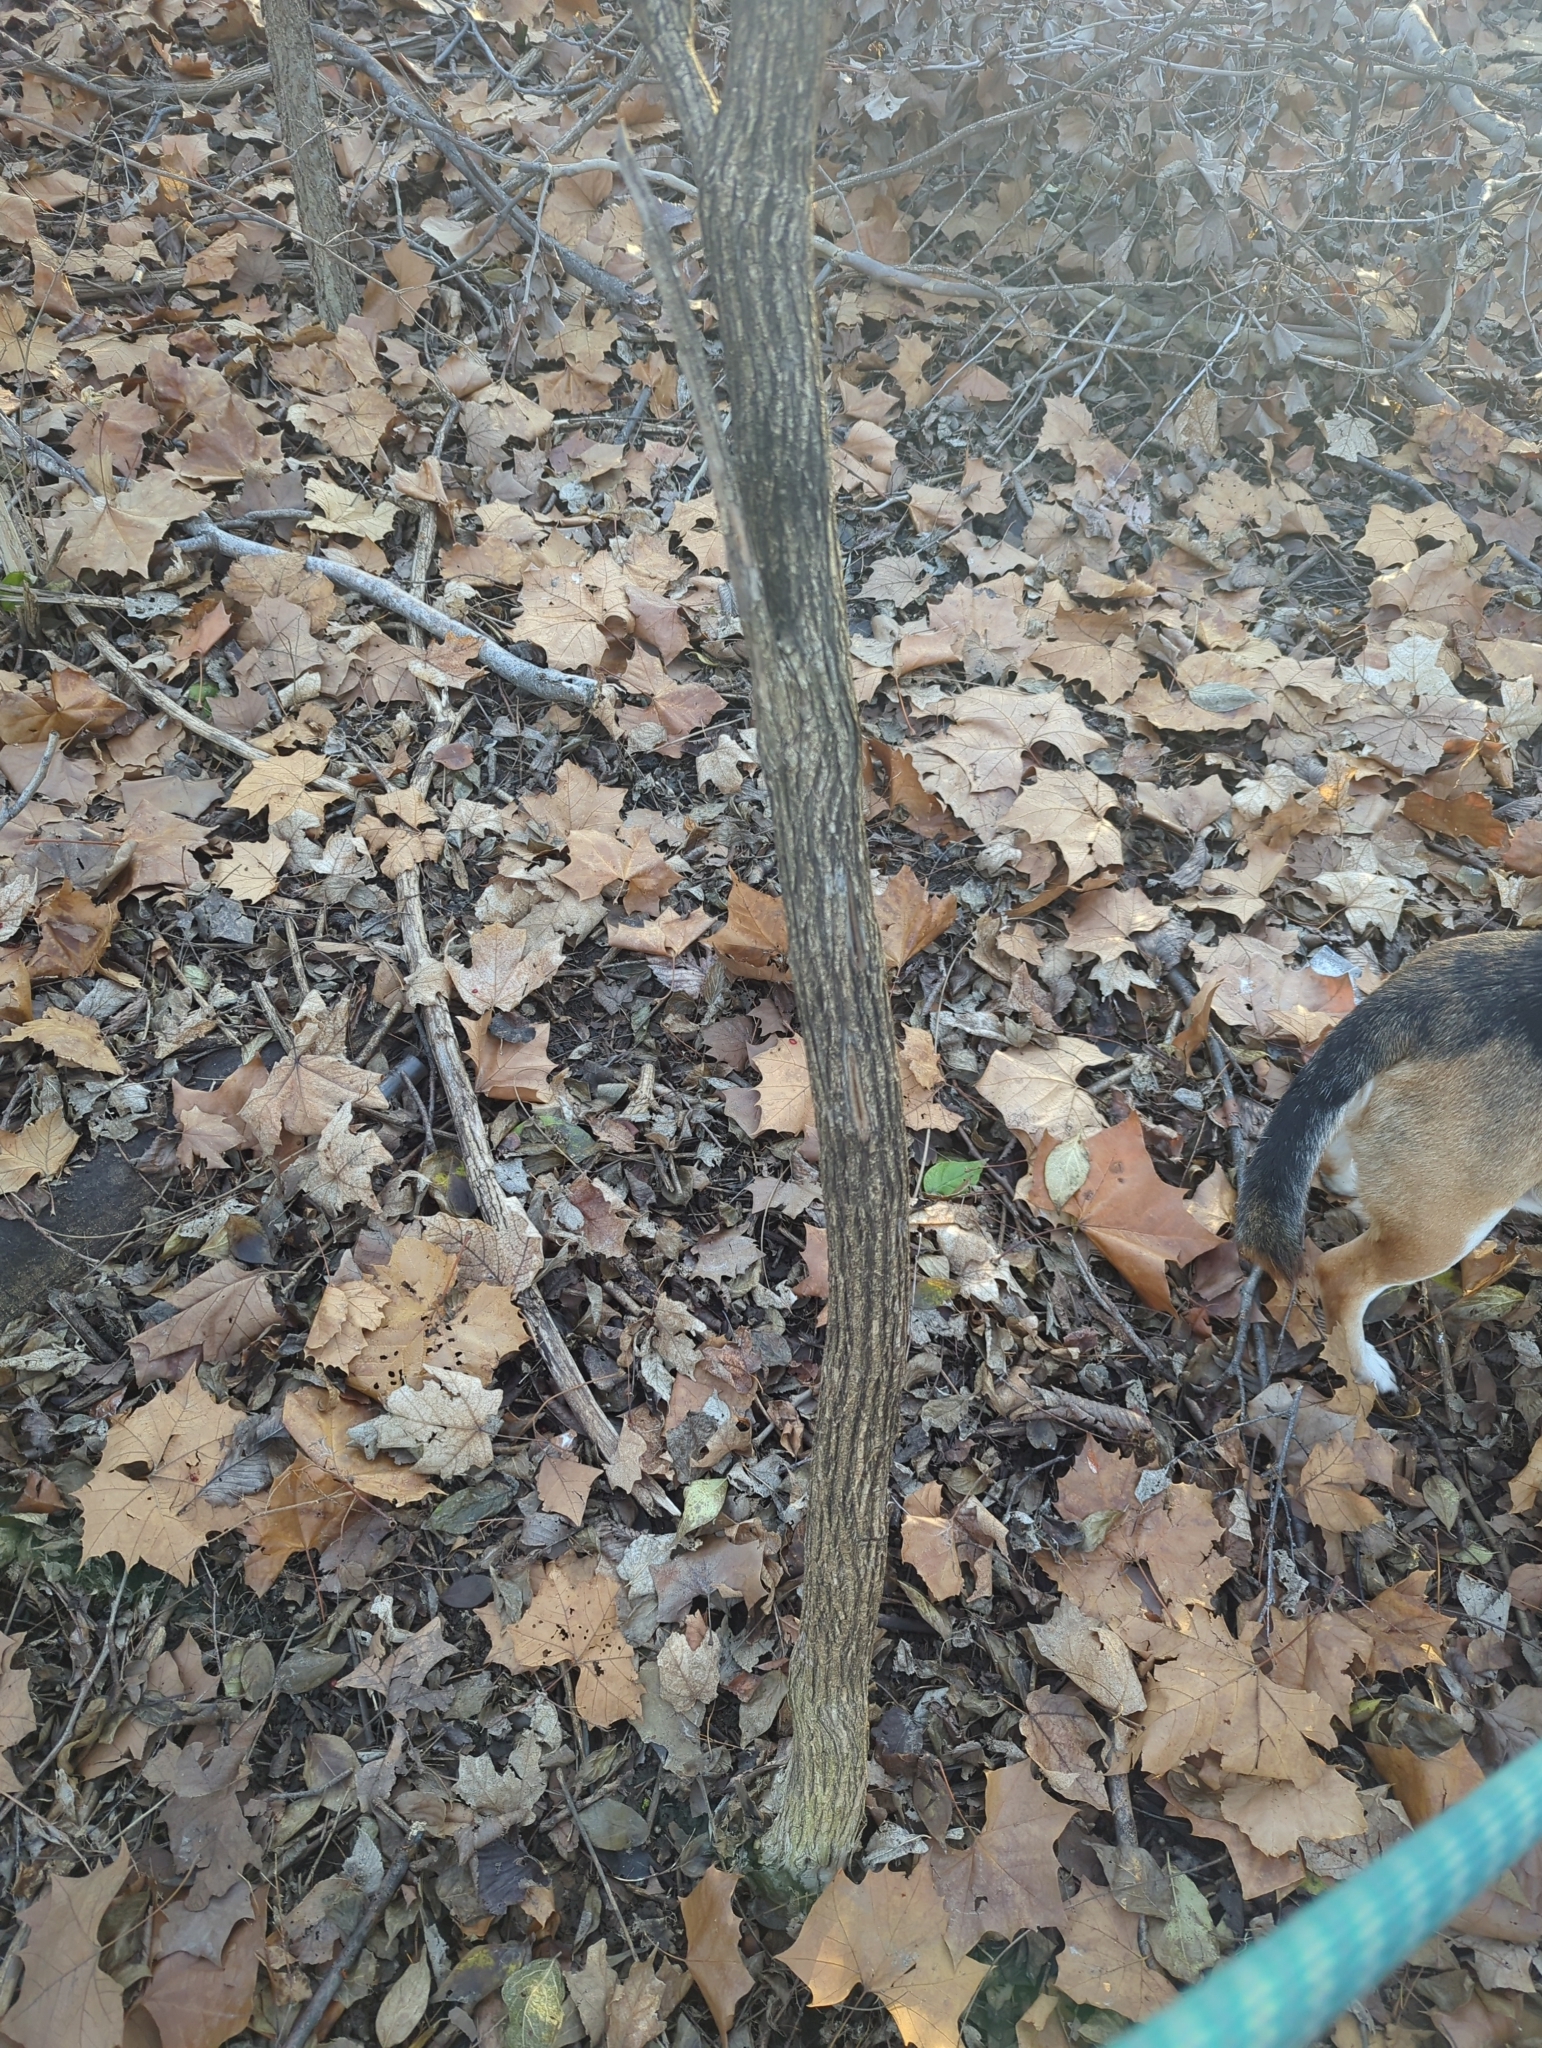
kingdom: Plantae
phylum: Tracheophyta
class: Magnoliopsida
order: Dipsacales
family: Caprifoliaceae
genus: Lonicera
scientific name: Lonicera maackii
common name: Amur honeysuckle
